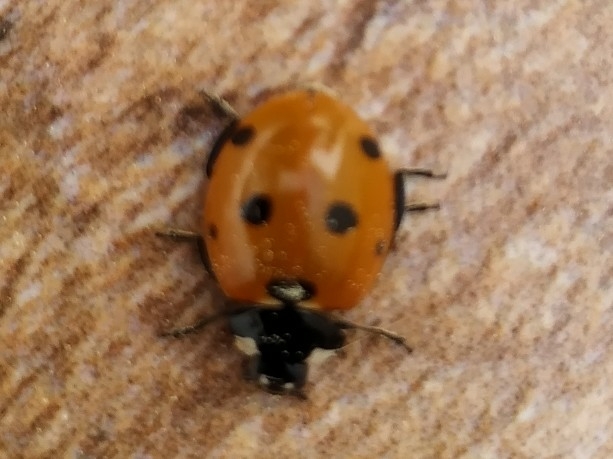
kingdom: Animalia
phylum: Arthropoda
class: Insecta
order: Coleoptera
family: Coccinellidae
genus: Coccinella
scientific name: Coccinella septempunctata
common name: Sevenspotted lady beetle
